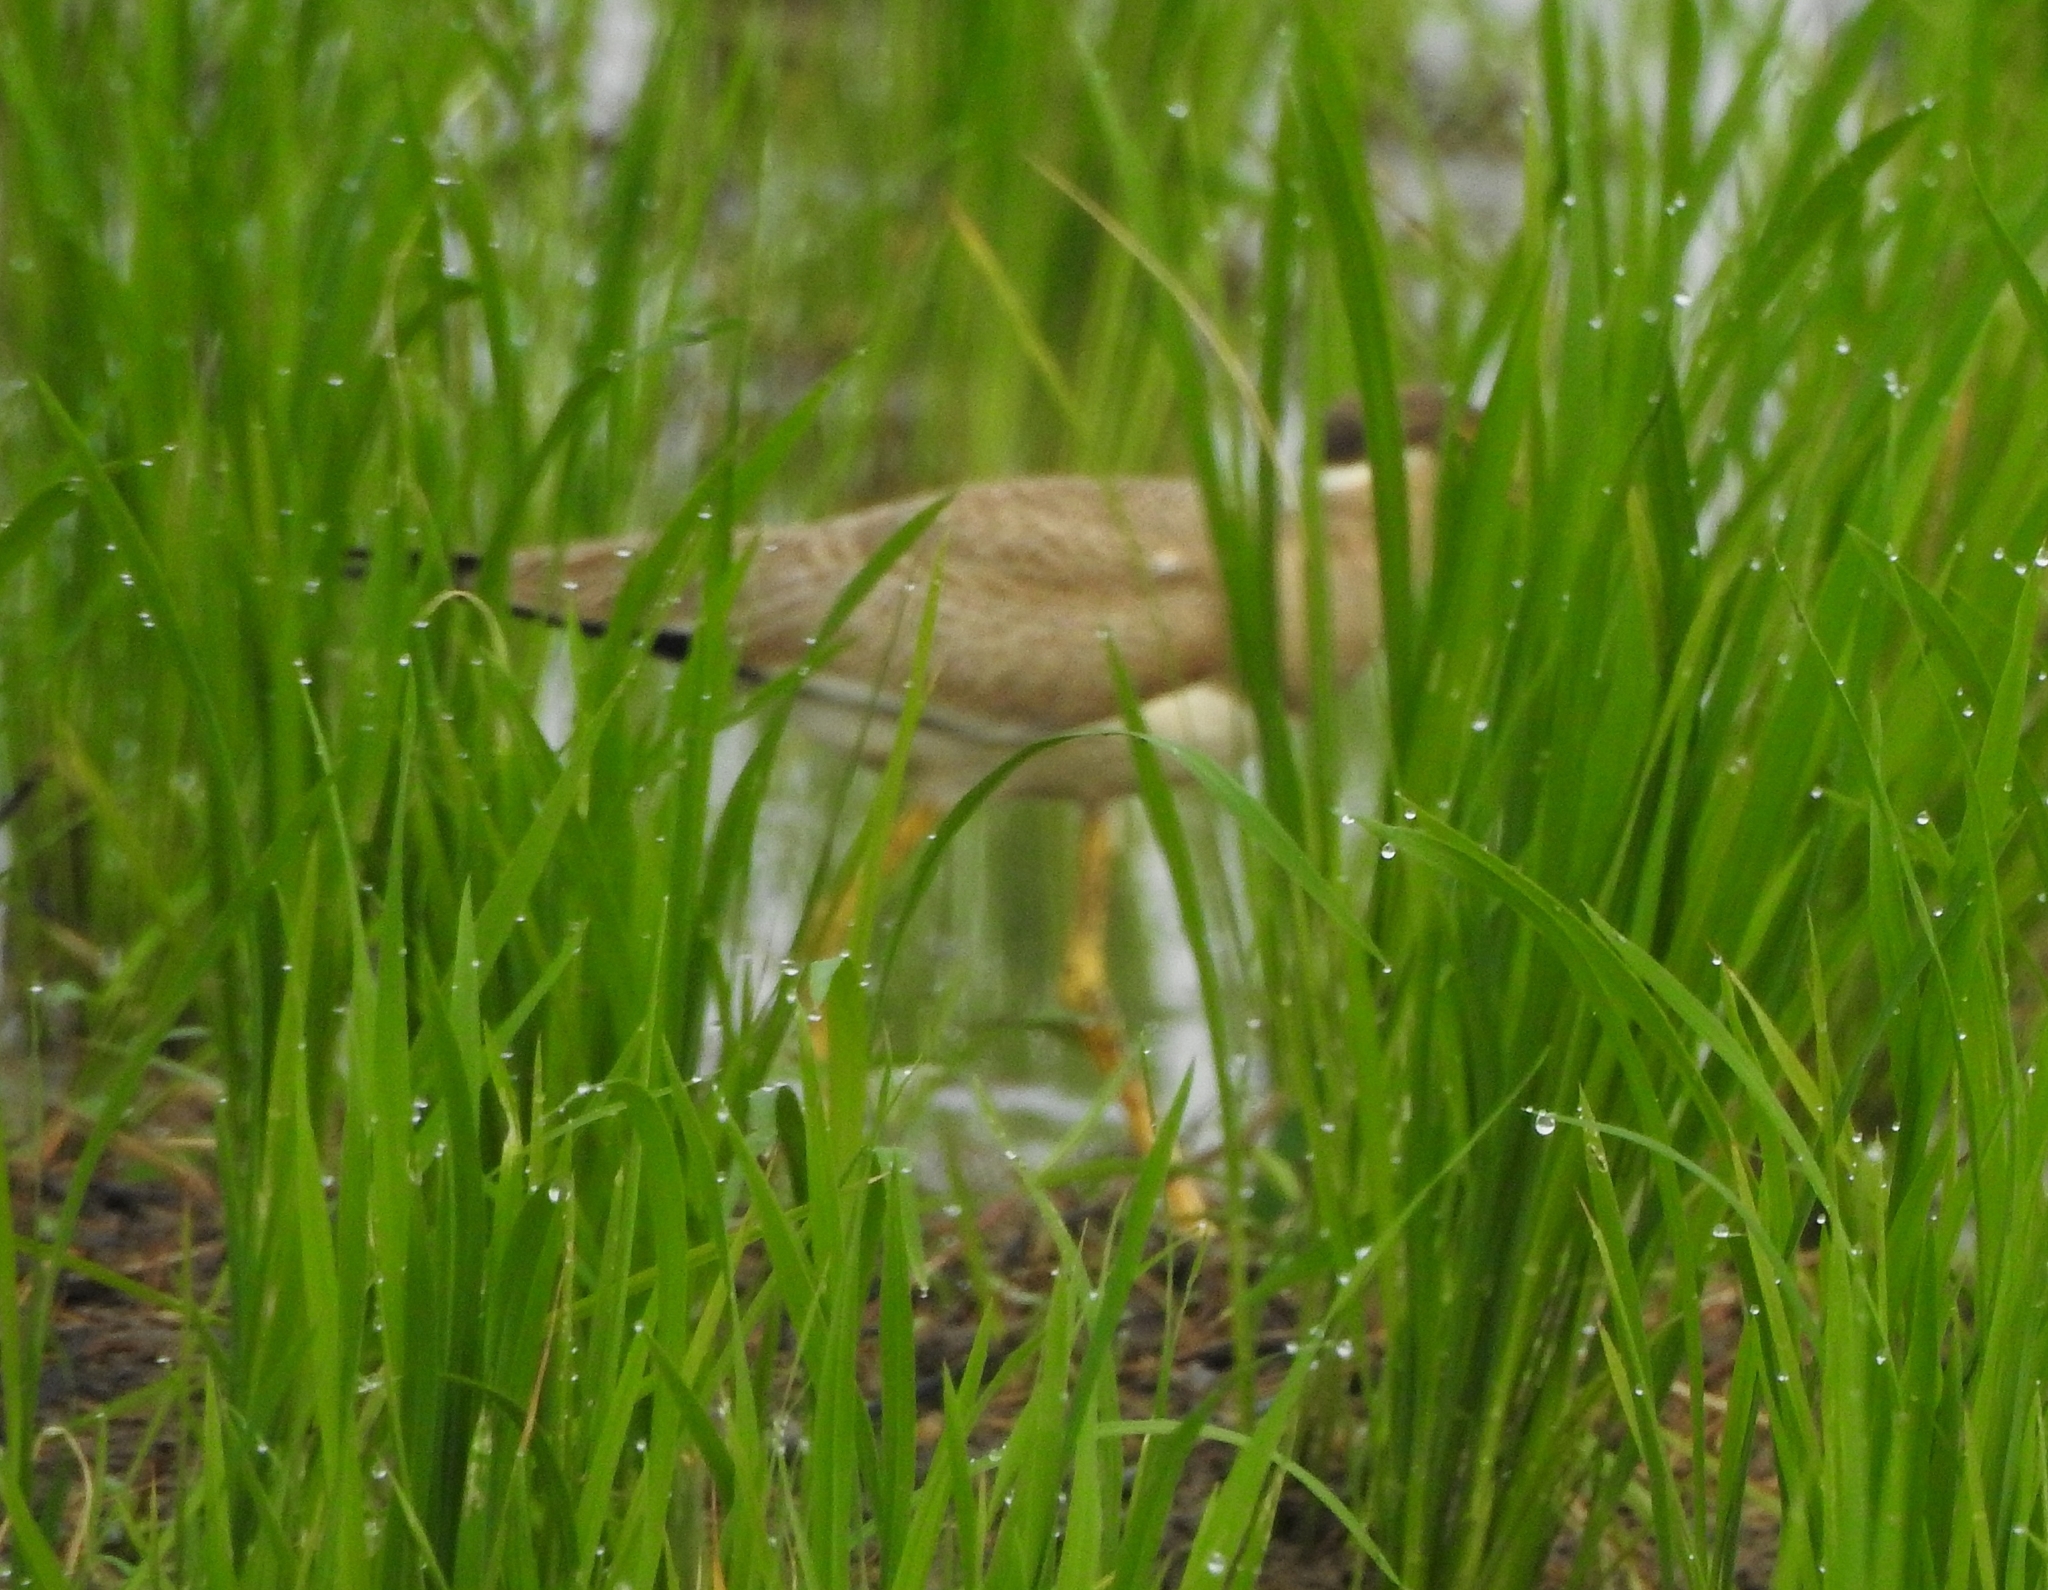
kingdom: Animalia
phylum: Chordata
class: Aves
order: Charadriiformes
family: Charadriidae
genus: Vanellus
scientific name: Vanellus malabaricus
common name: Yellow-wattled lapwing
